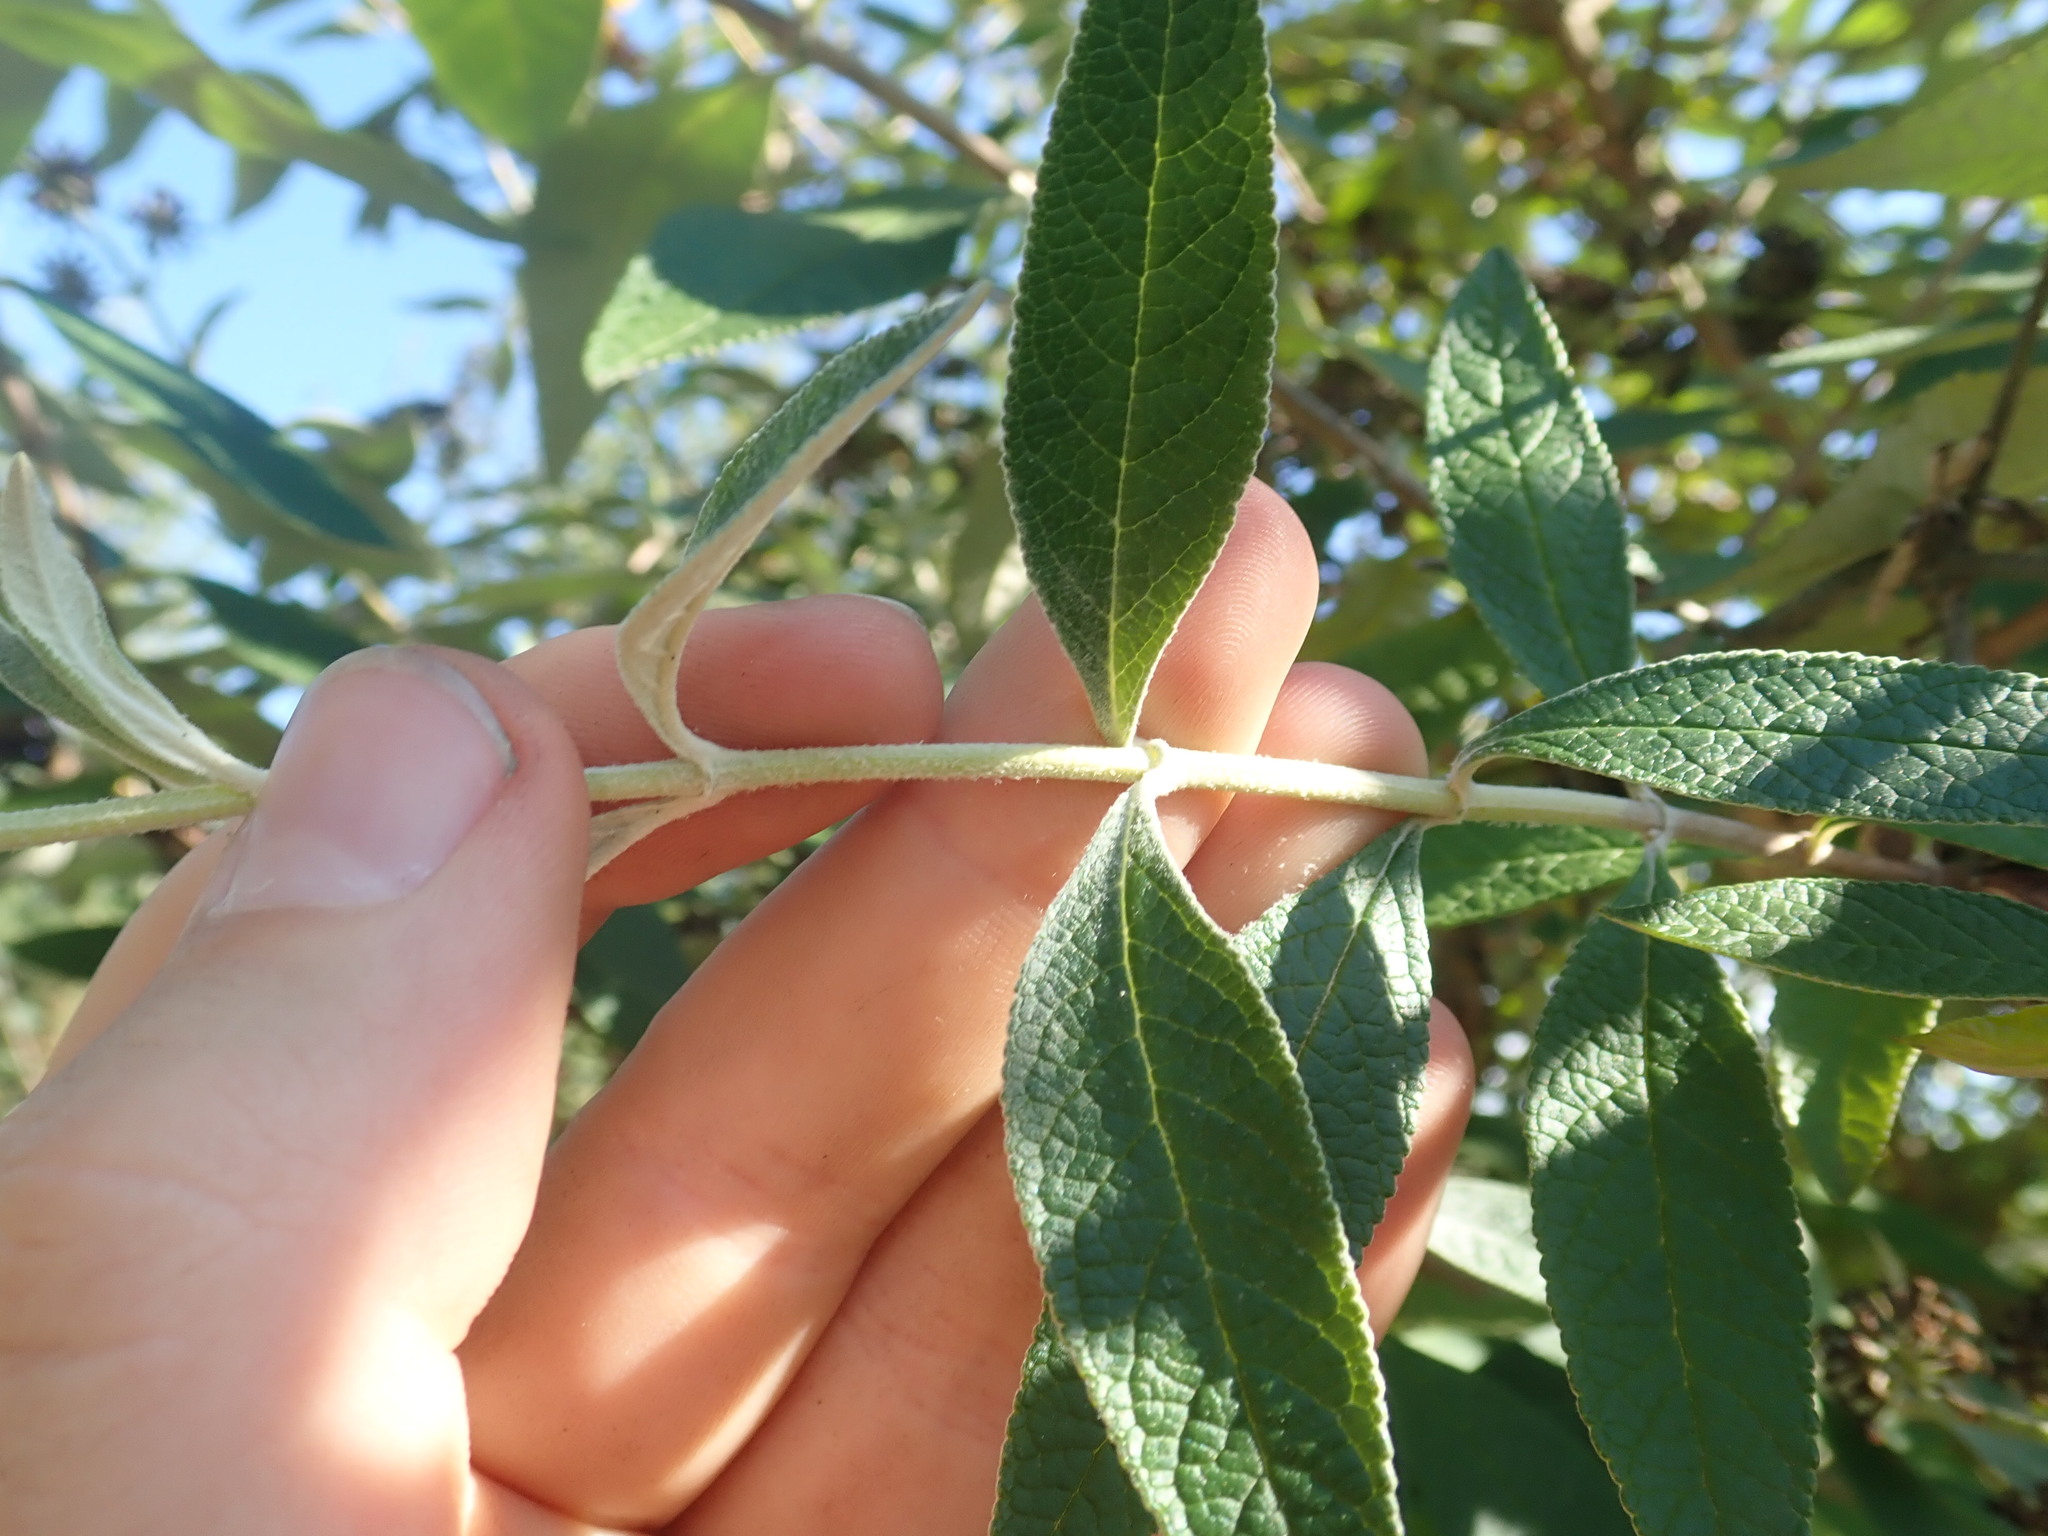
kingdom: Plantae
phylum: Tracheophyta
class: Magnoliopsida
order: Lamiales
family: Scrophulariaceae
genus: Buddleja
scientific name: Buddleja weyeriana
